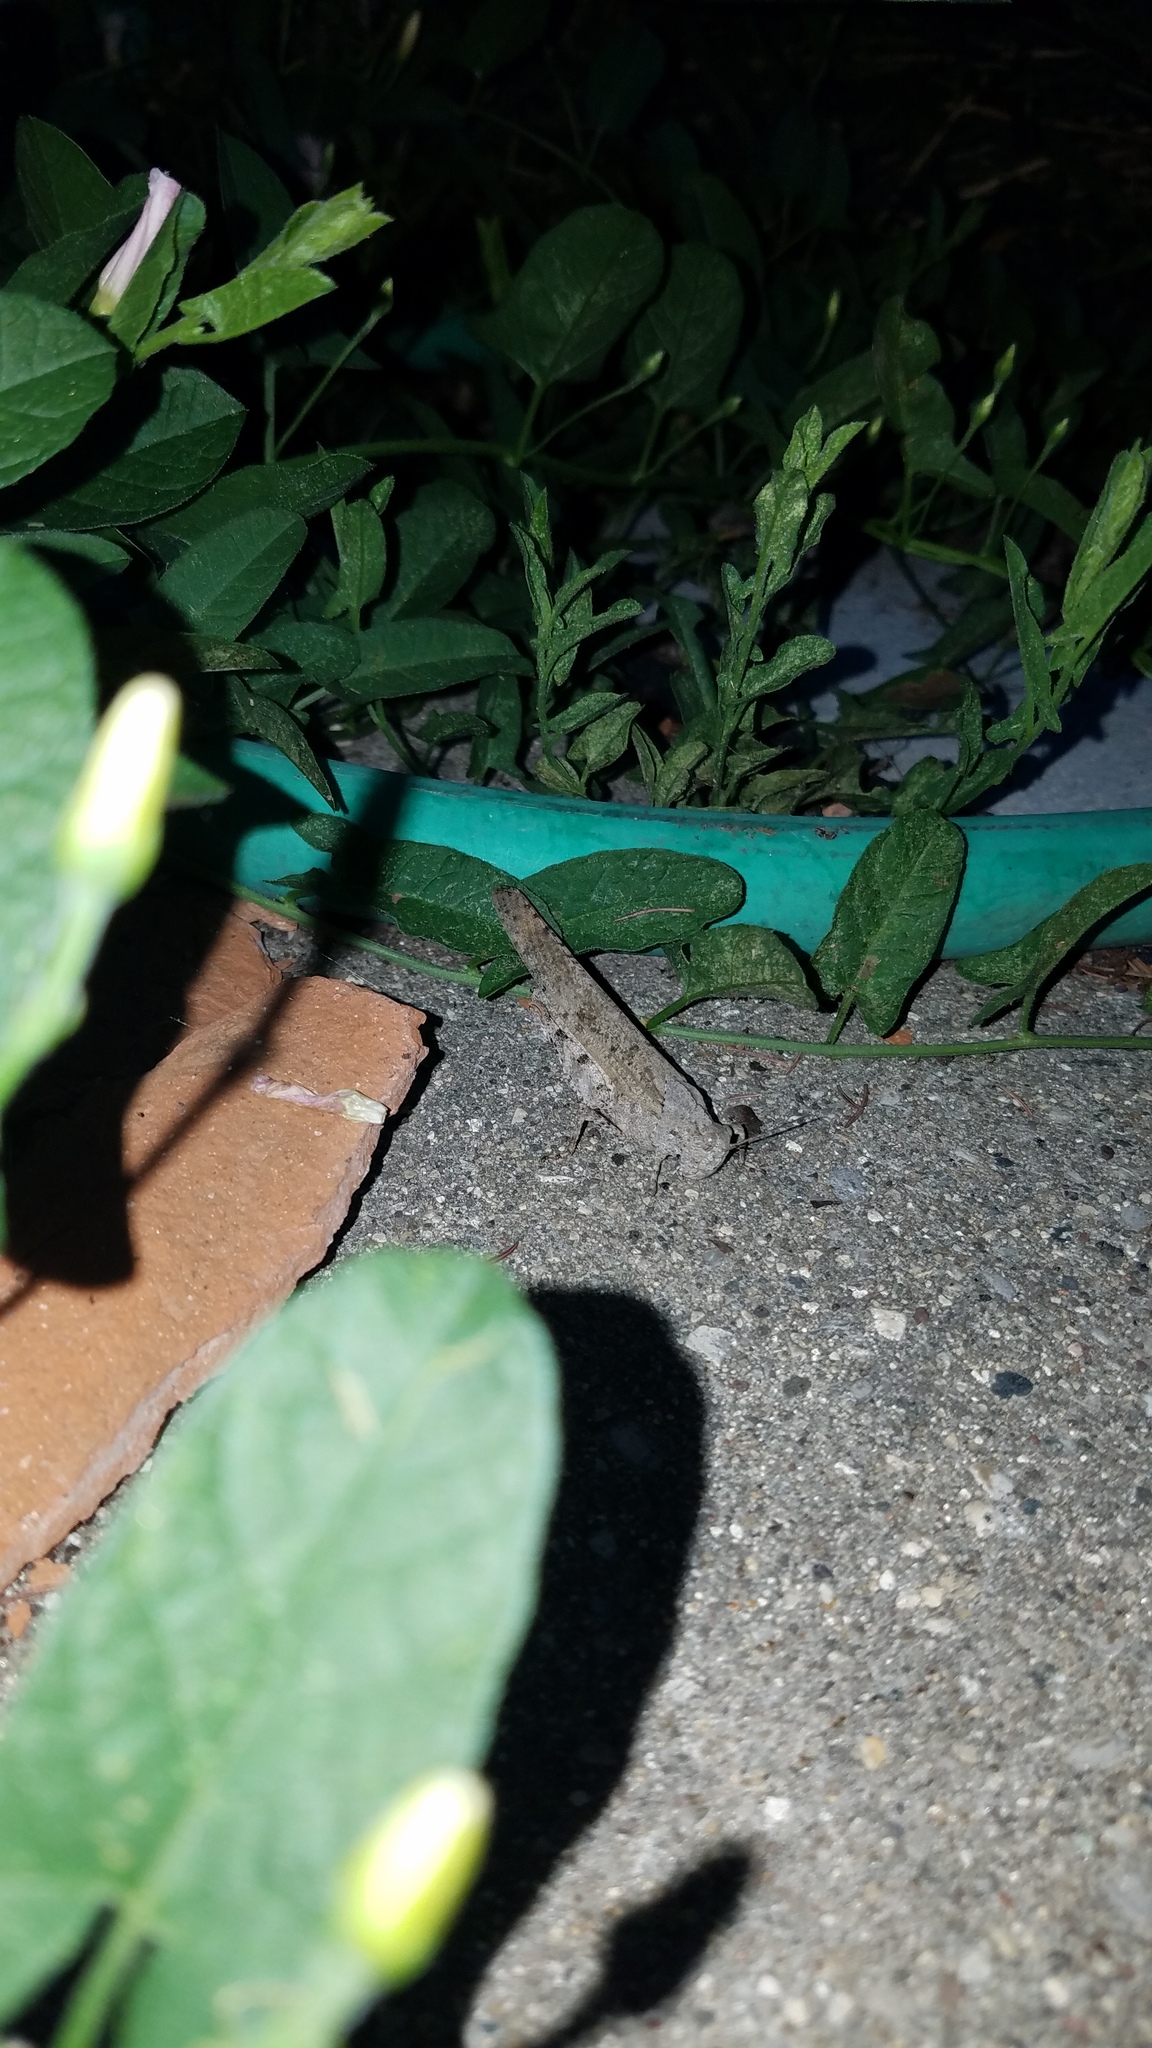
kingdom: Animalia
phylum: Arthropoda
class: Insecta
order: Orthoptera
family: Acrididae
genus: Dissosteira
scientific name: Dissosteira carolina
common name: Carolina grasshopper
